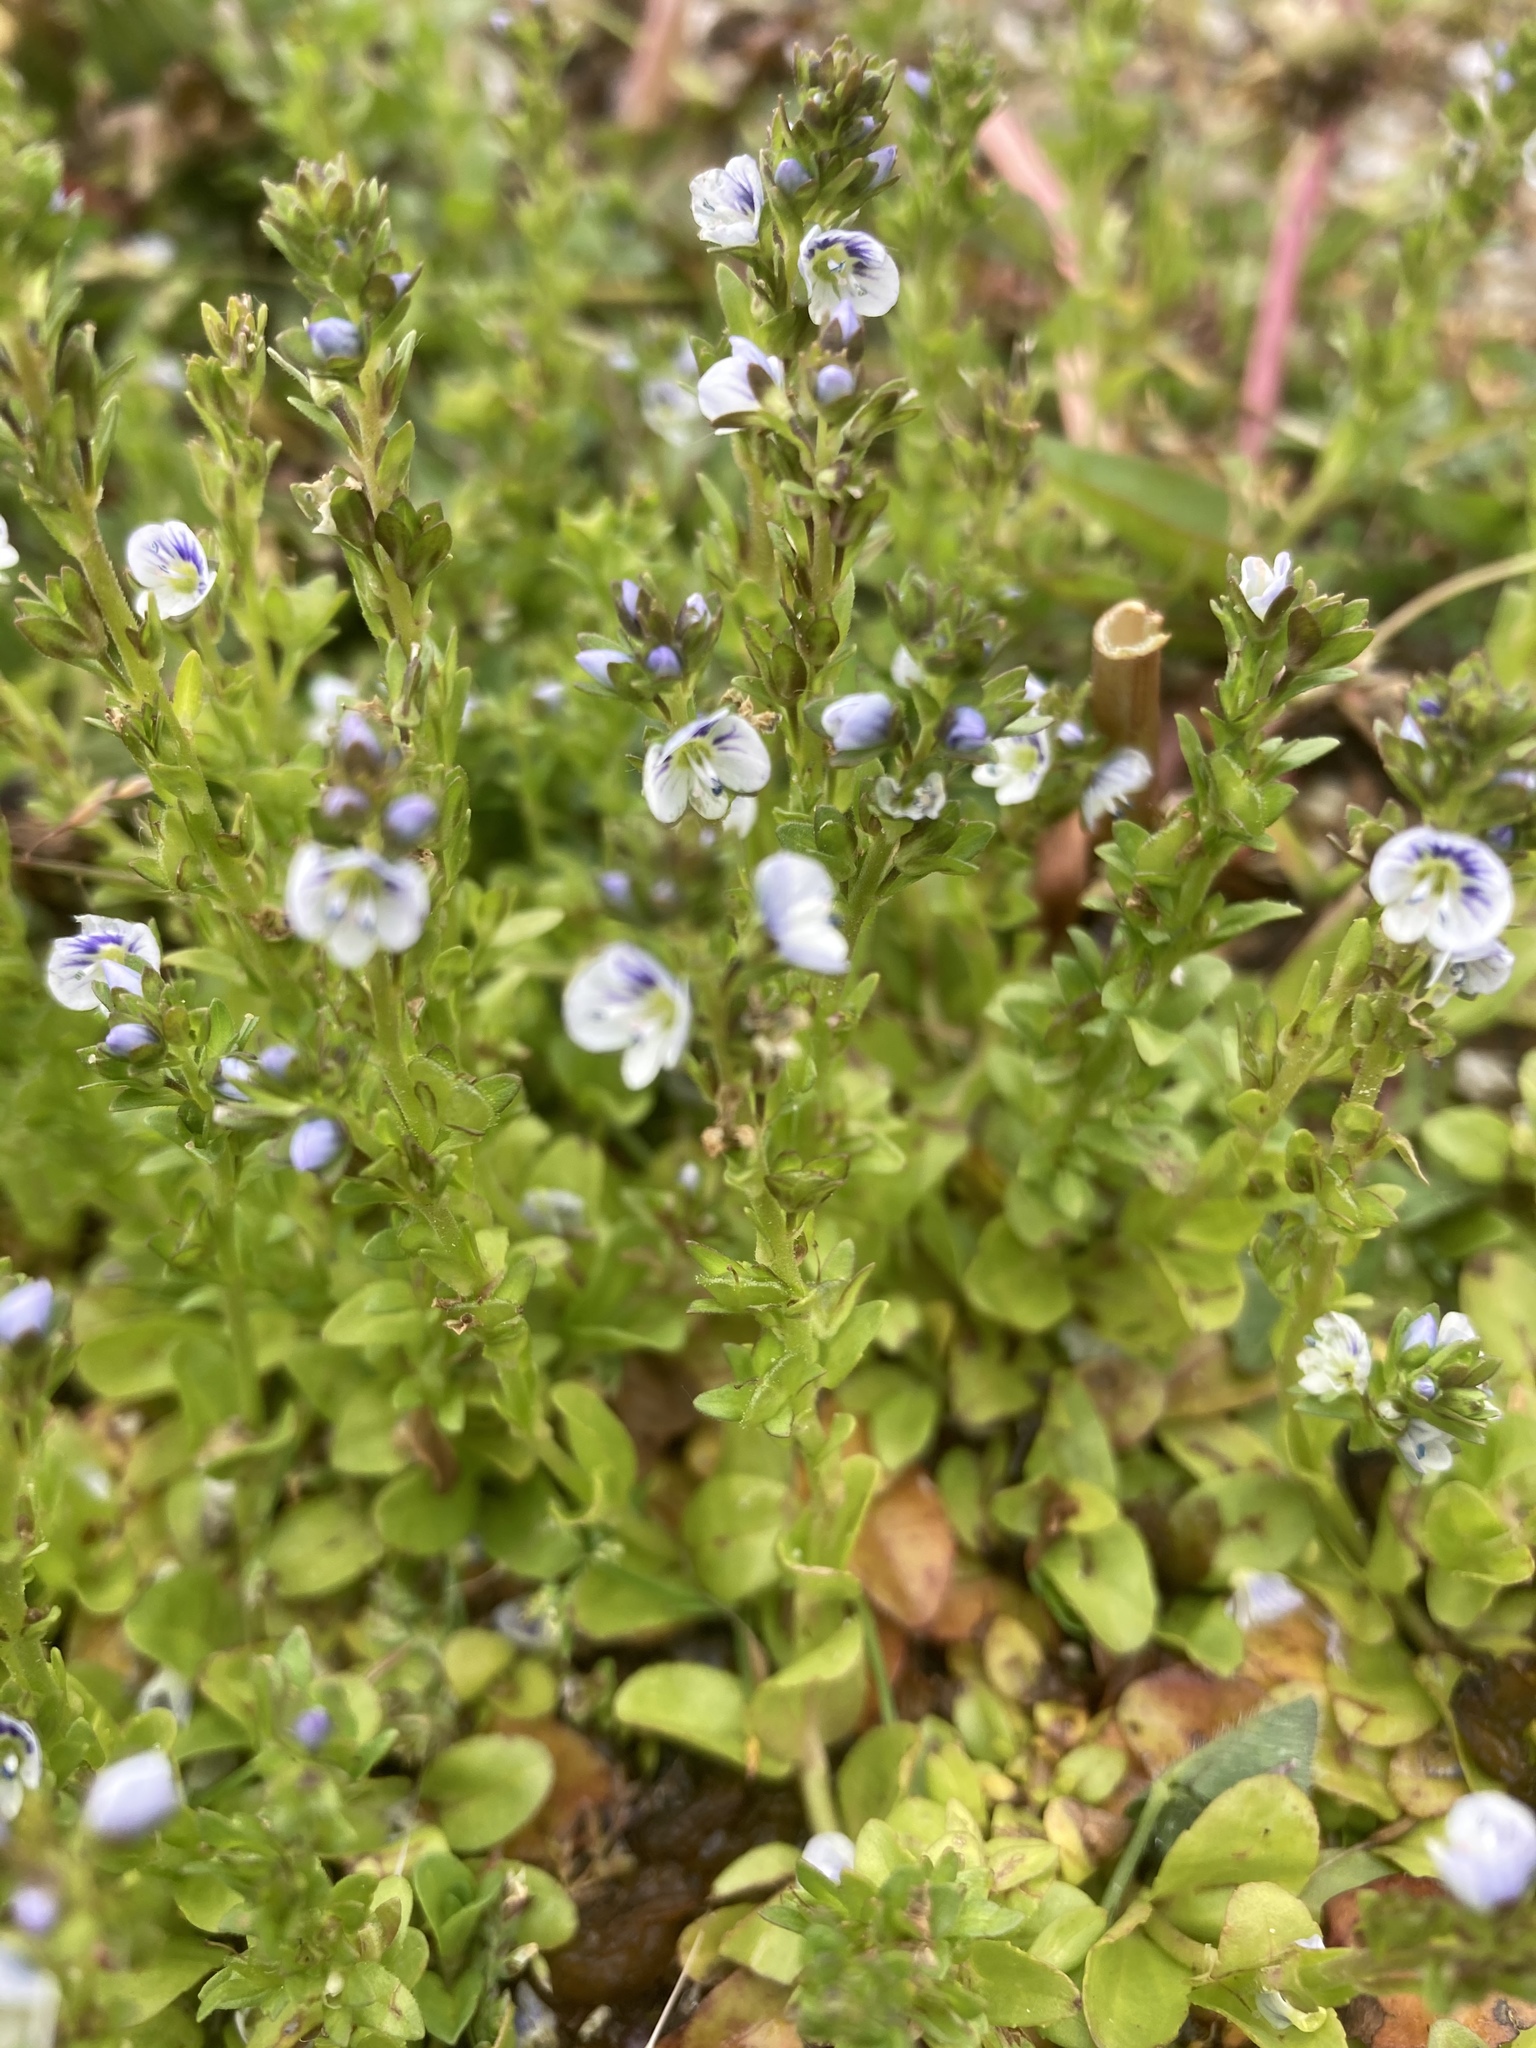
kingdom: Plantae
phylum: Tracheophyta
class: Magnoliopsida
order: Lamiales
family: Plantaginaceae
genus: Veronica
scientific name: Veronica serpyllifolia
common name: Thyme-leaved speedwell
